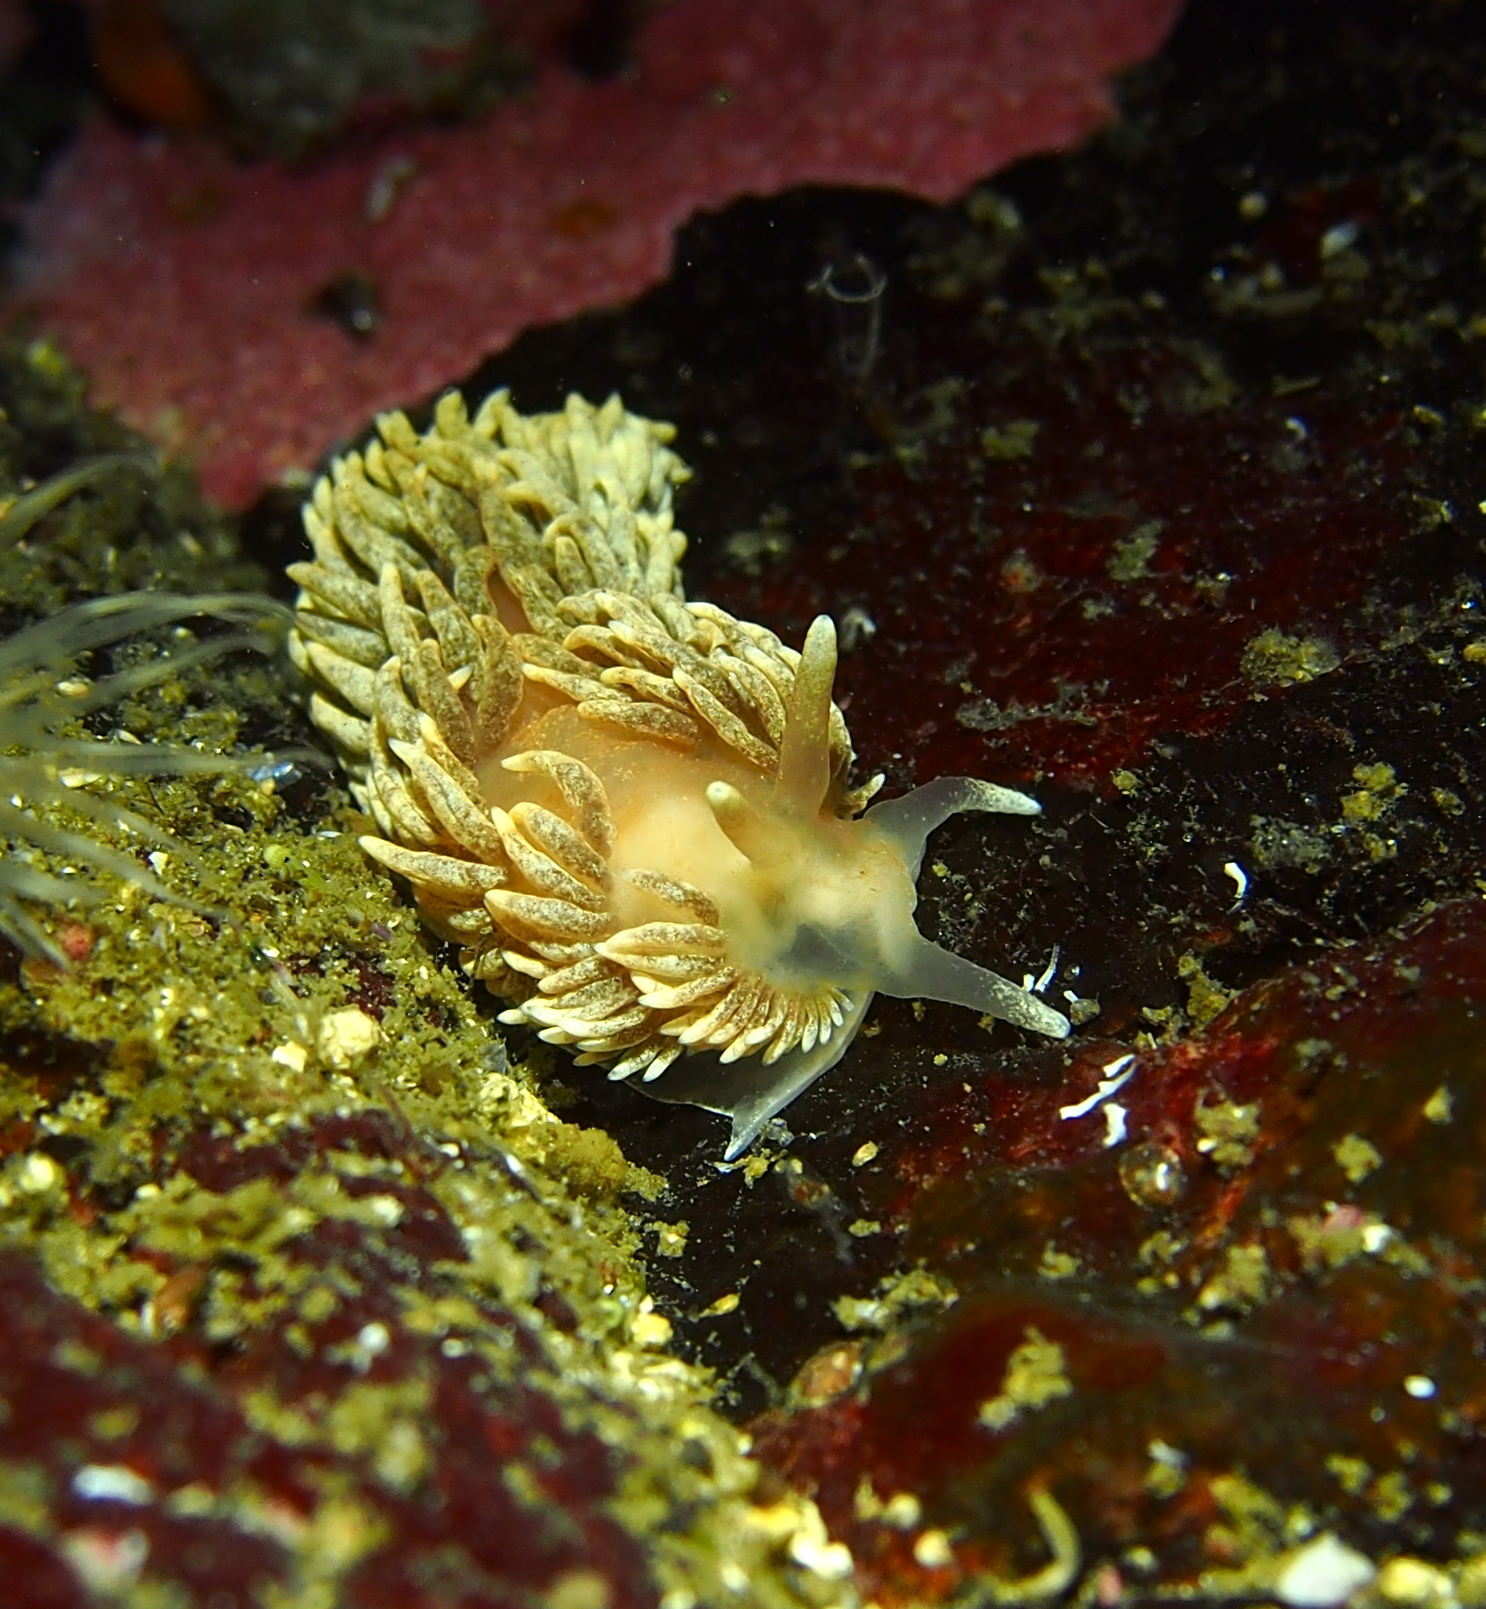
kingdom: Animalia
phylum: Mollusca
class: Gastropoda
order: Nudibranchia
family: Aeolidiidae
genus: Aeolidiella
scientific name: Aeolidiella glauca
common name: Orange-brown aeolid
